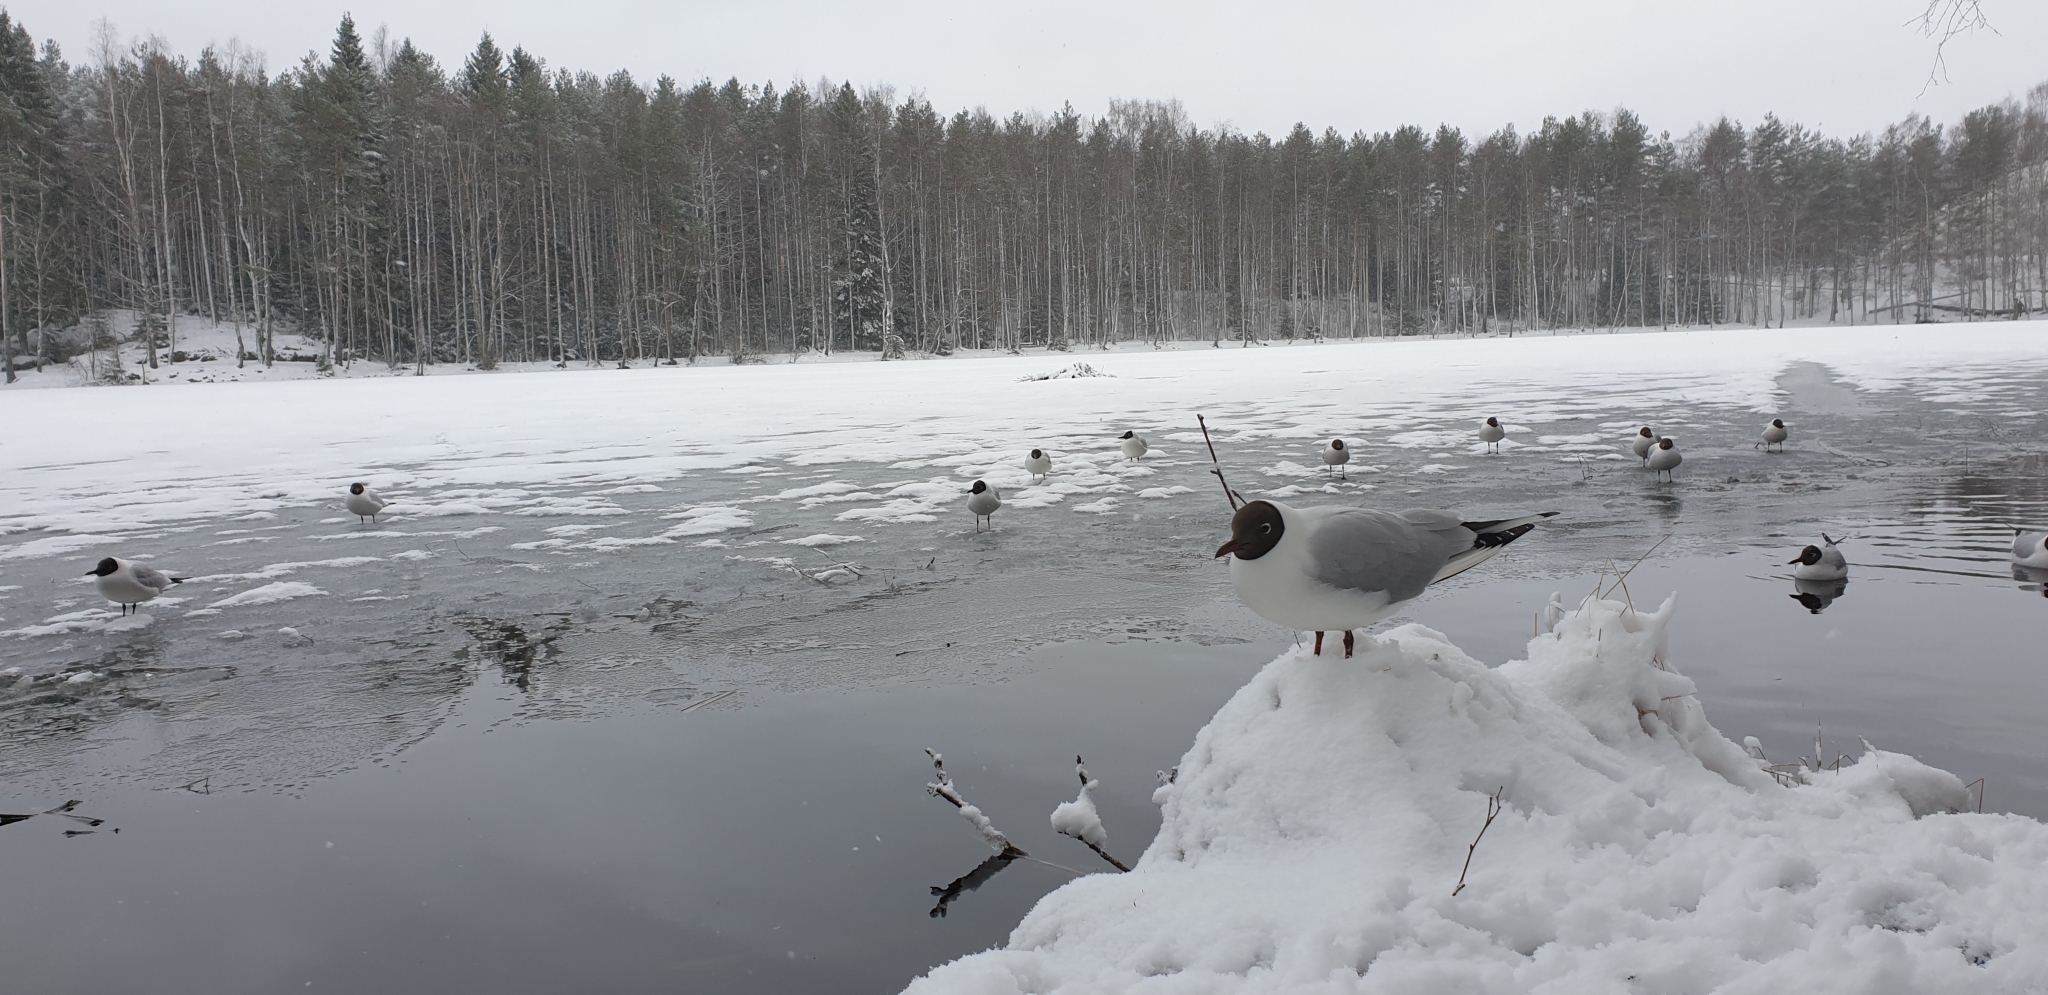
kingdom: Animalia
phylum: Chordata
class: Aves
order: Charadriiformes
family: Laridae
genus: Chroicocephalus
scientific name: Chroicocephalus ridibundus
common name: Black-headed gull
